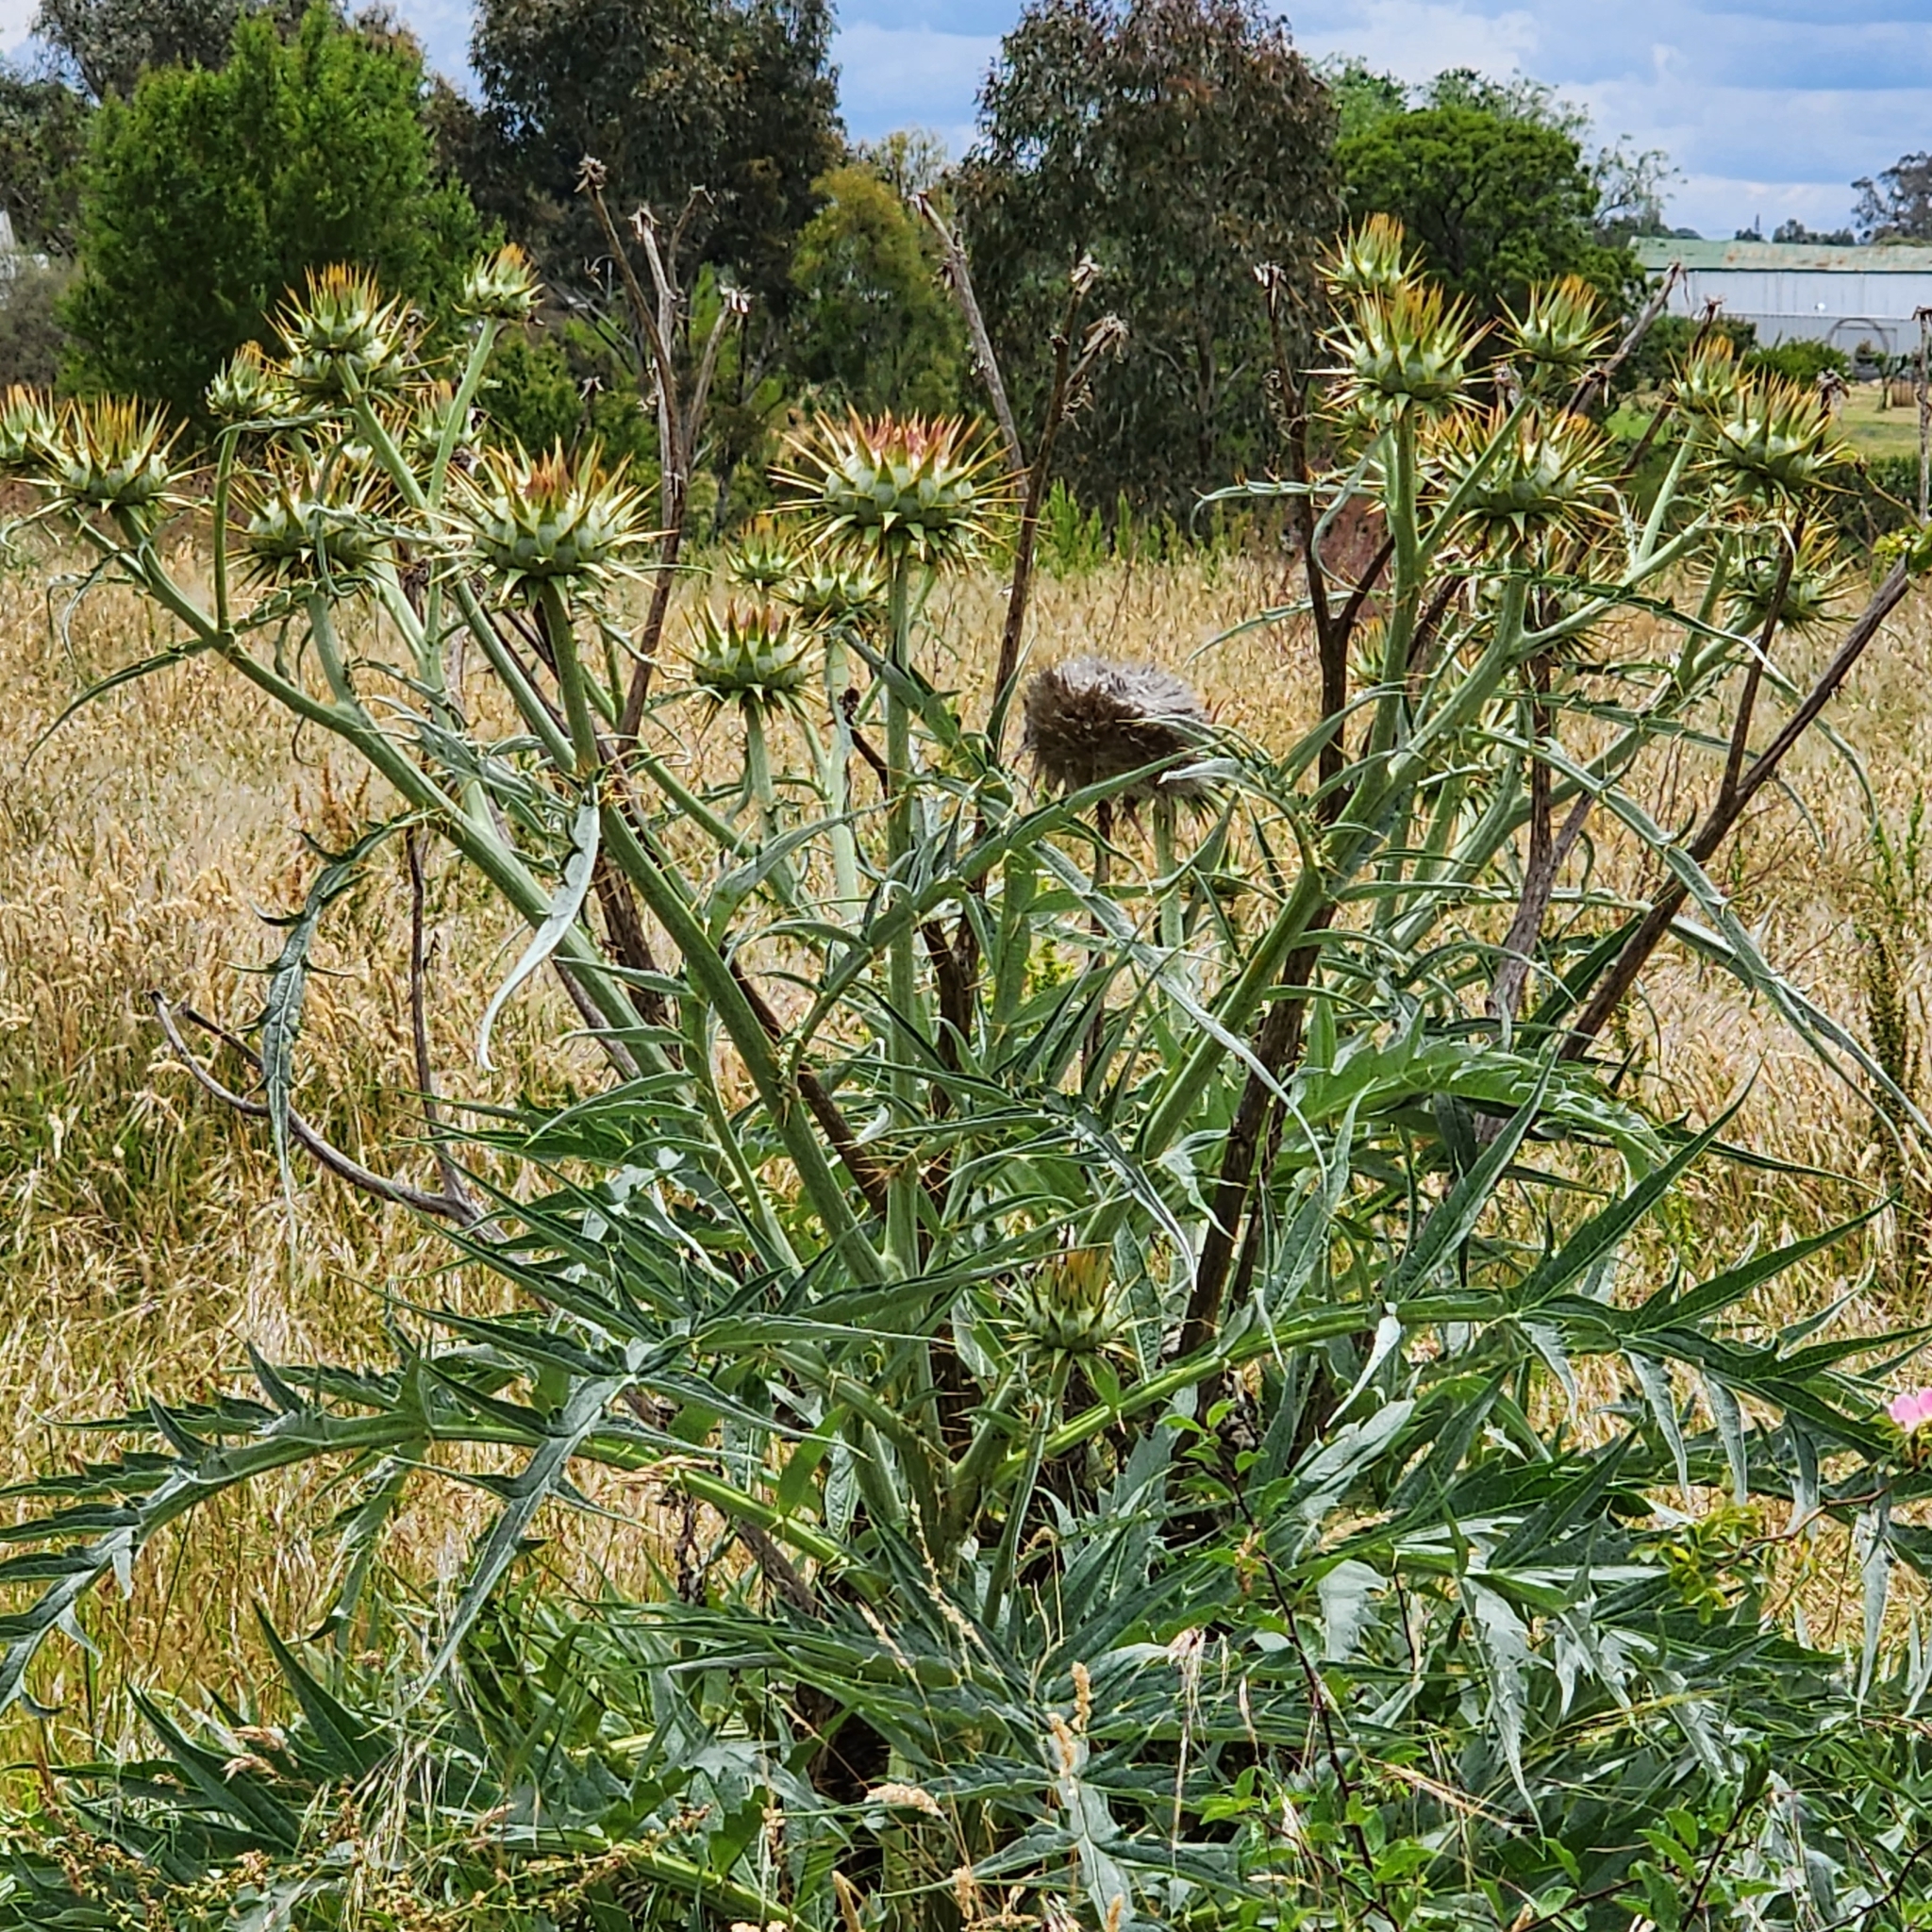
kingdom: Plantae
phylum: Tracheophyta
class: Magnoliopsida
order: Asterales
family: Asteraceae
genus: Cynara
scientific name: Cynara cardunculus
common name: Globe artichoke
